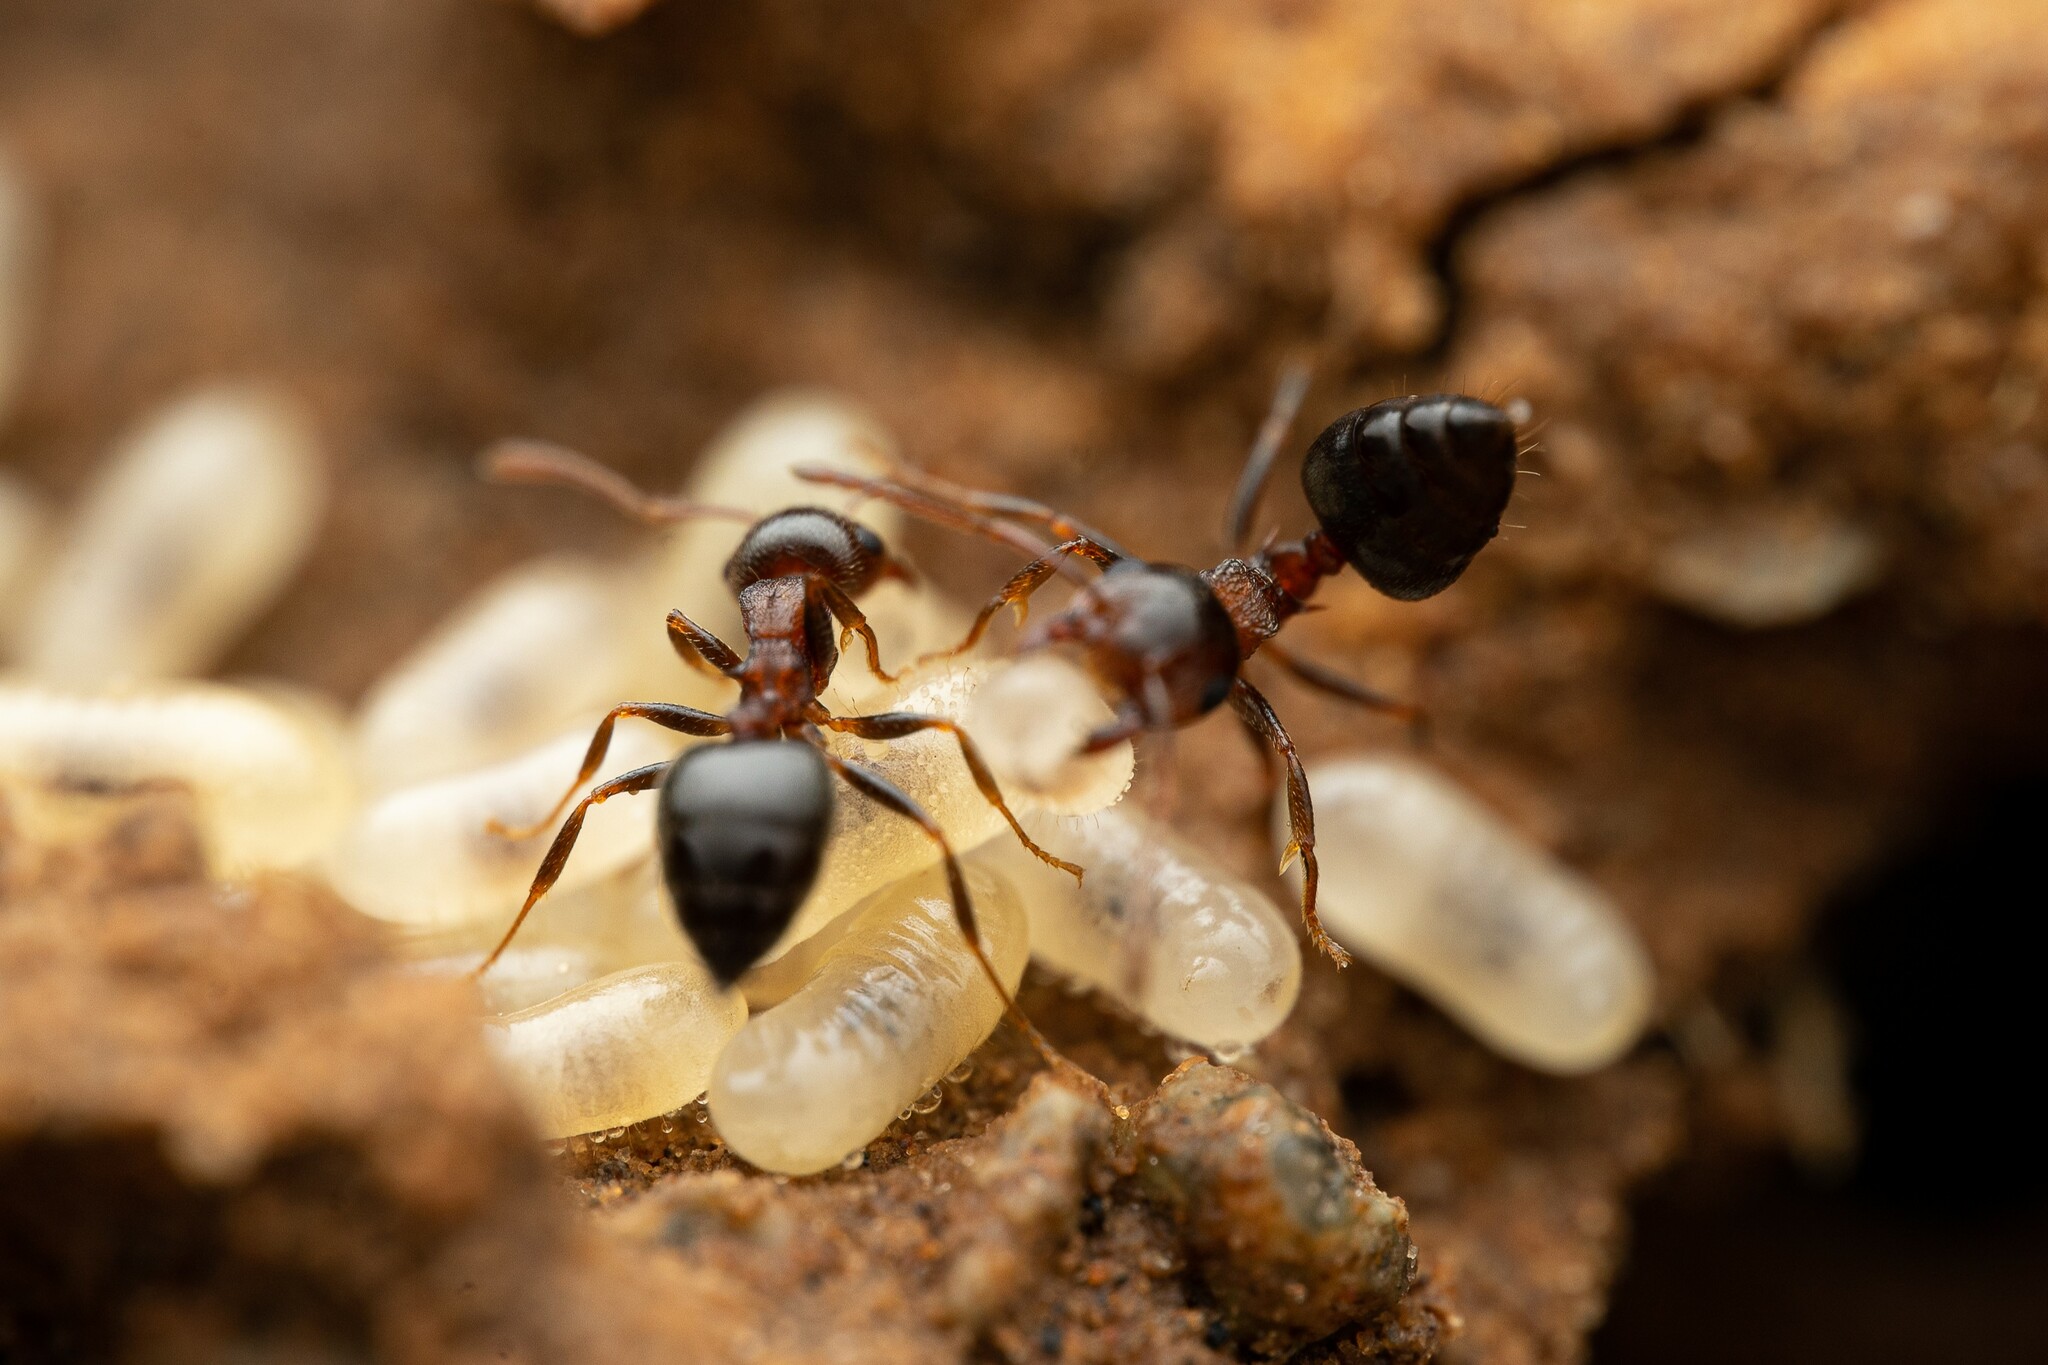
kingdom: Animalia
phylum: Arthropoda
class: Insecta
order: Hymenoptera
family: Formicidae
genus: Crematogaster
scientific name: Crematogaster
